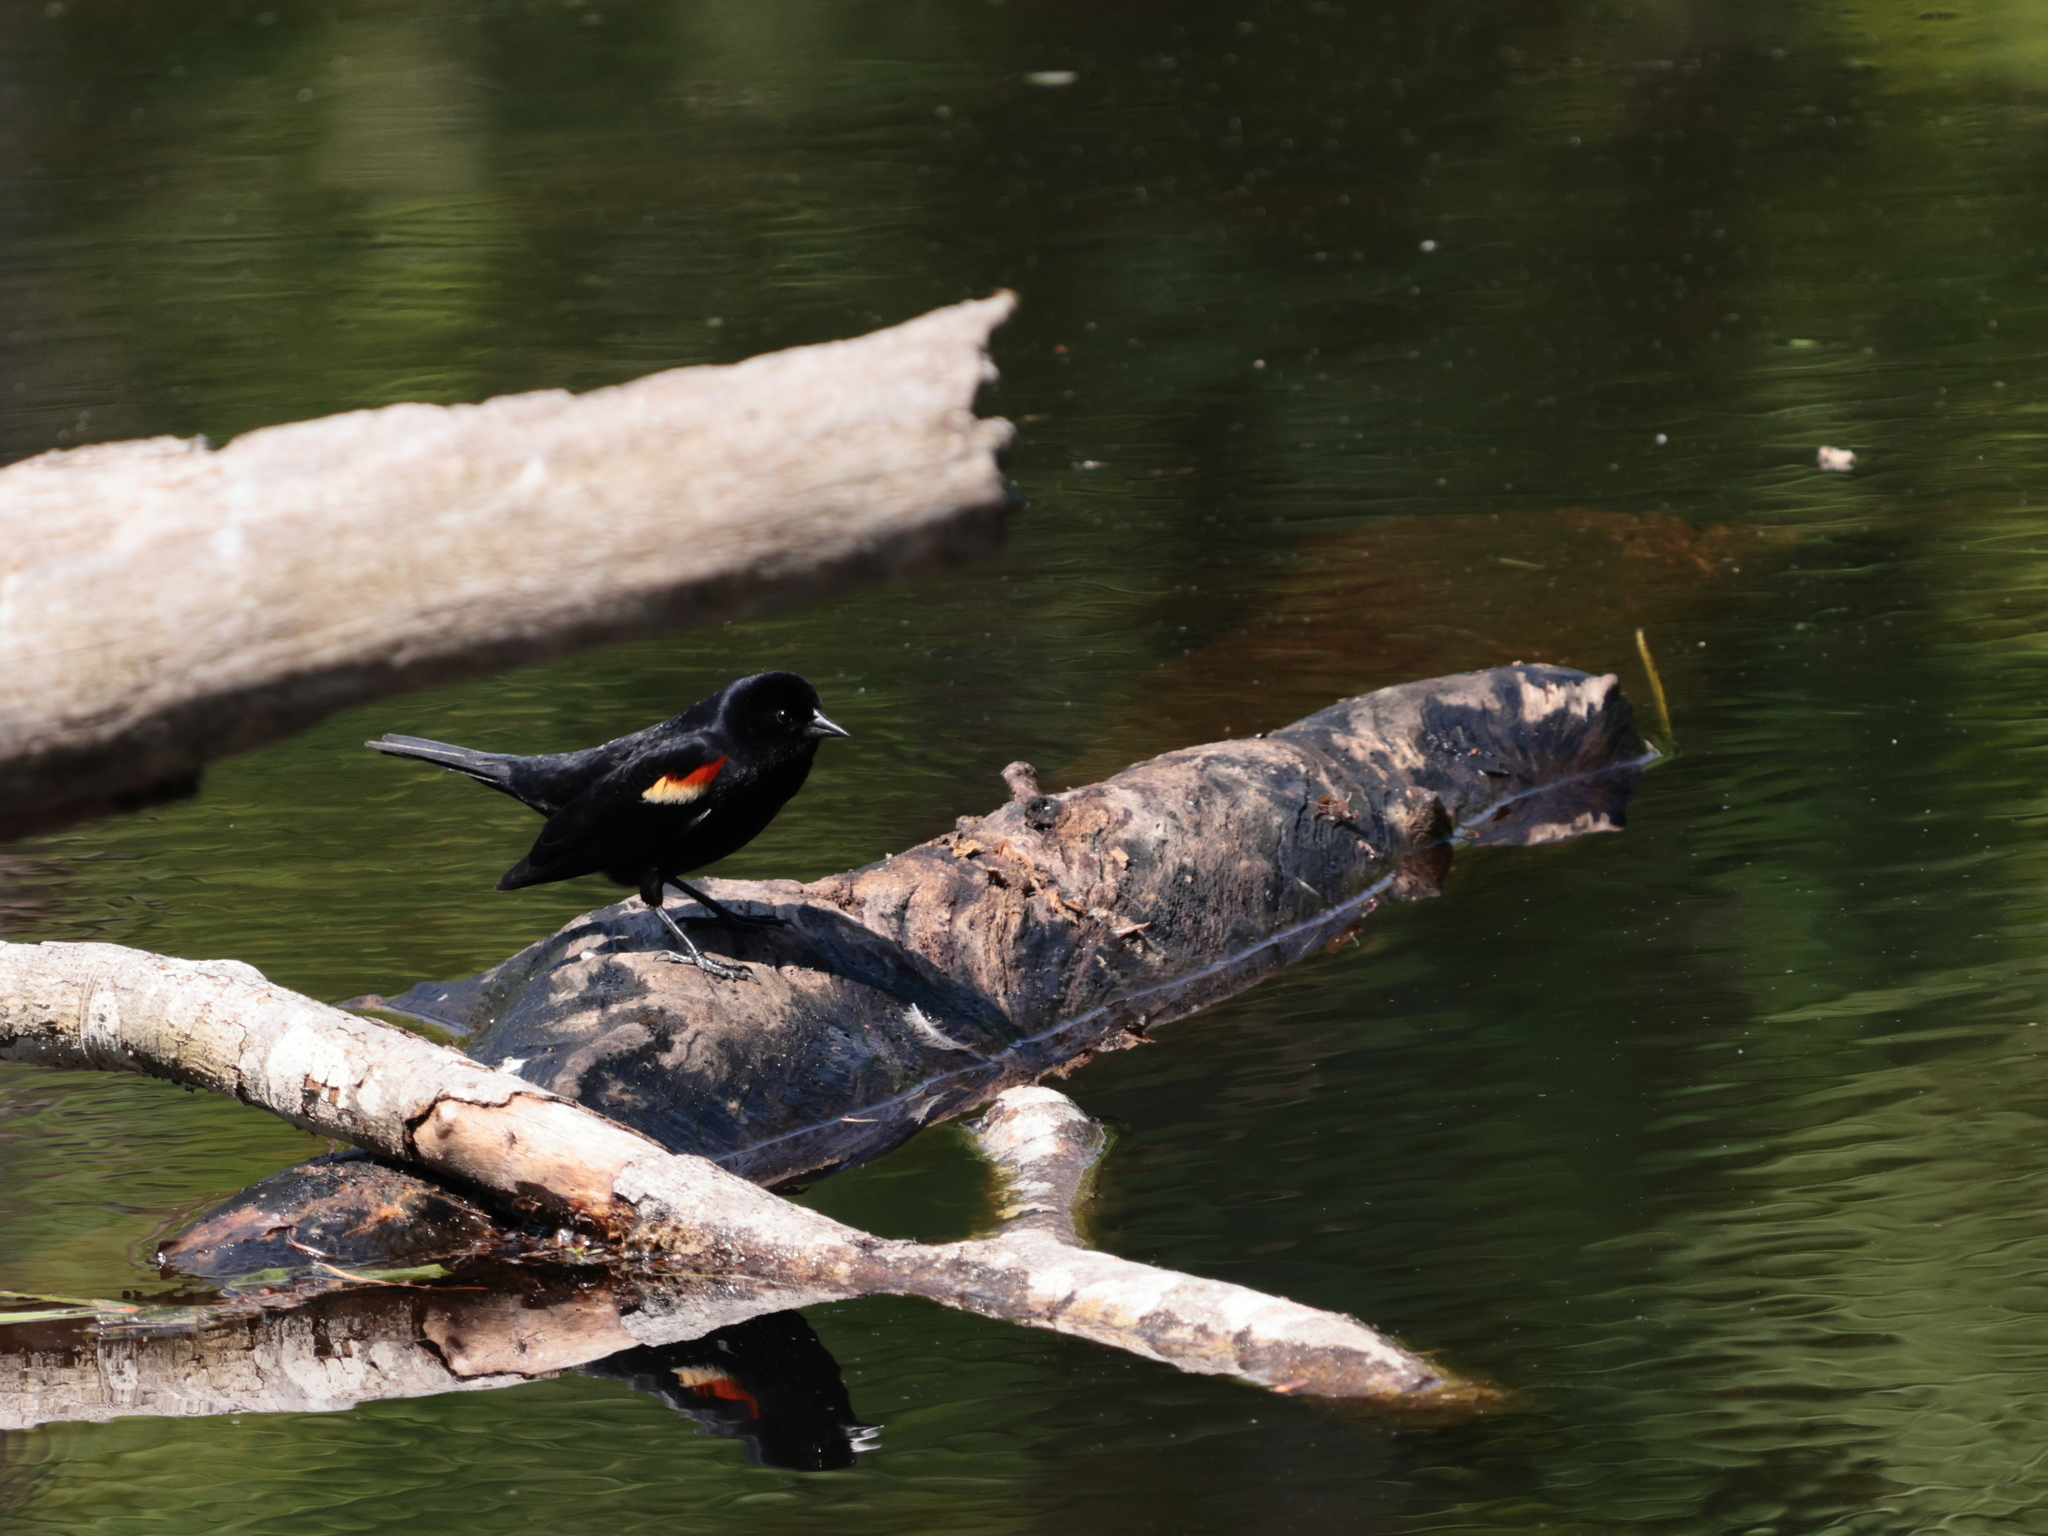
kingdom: Animalia
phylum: Chordata
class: Aves
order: Passeriformes
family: Icteridae
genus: Agelaius
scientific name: Agelaius phoeniceus
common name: Red-winged blackbird
